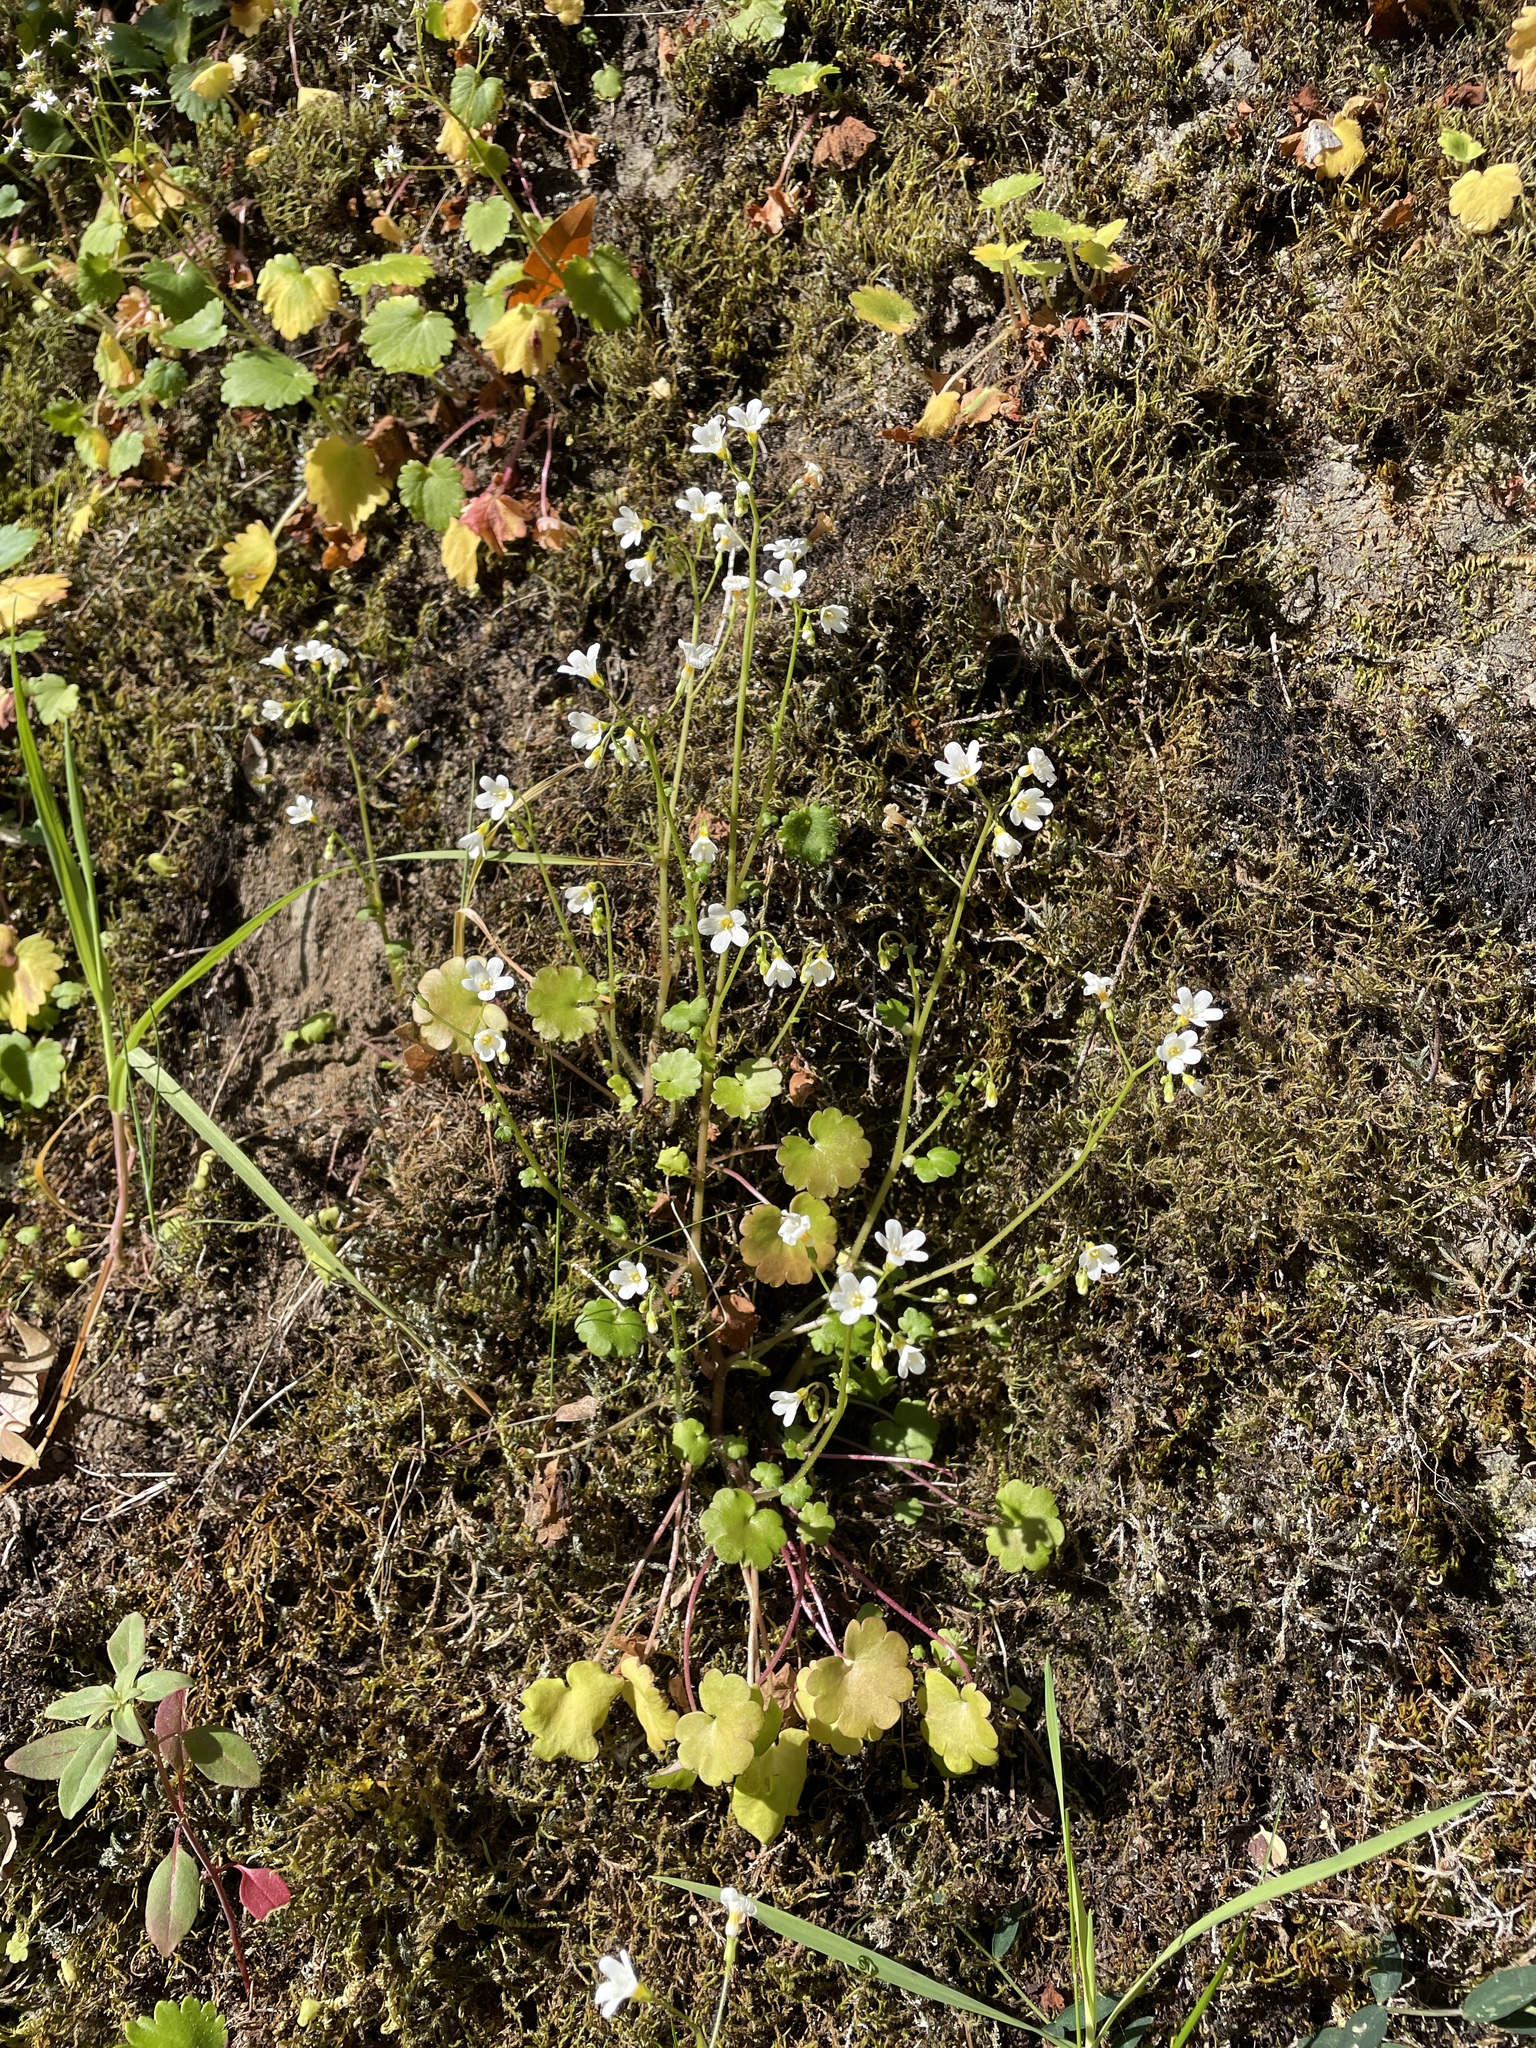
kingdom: Plantae
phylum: Tracheophyta
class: Magnoliopsida
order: Boraginales
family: Hydrophyllaceae
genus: Romanzoffia
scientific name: Romanzoffia californica
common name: California mistmaiden
